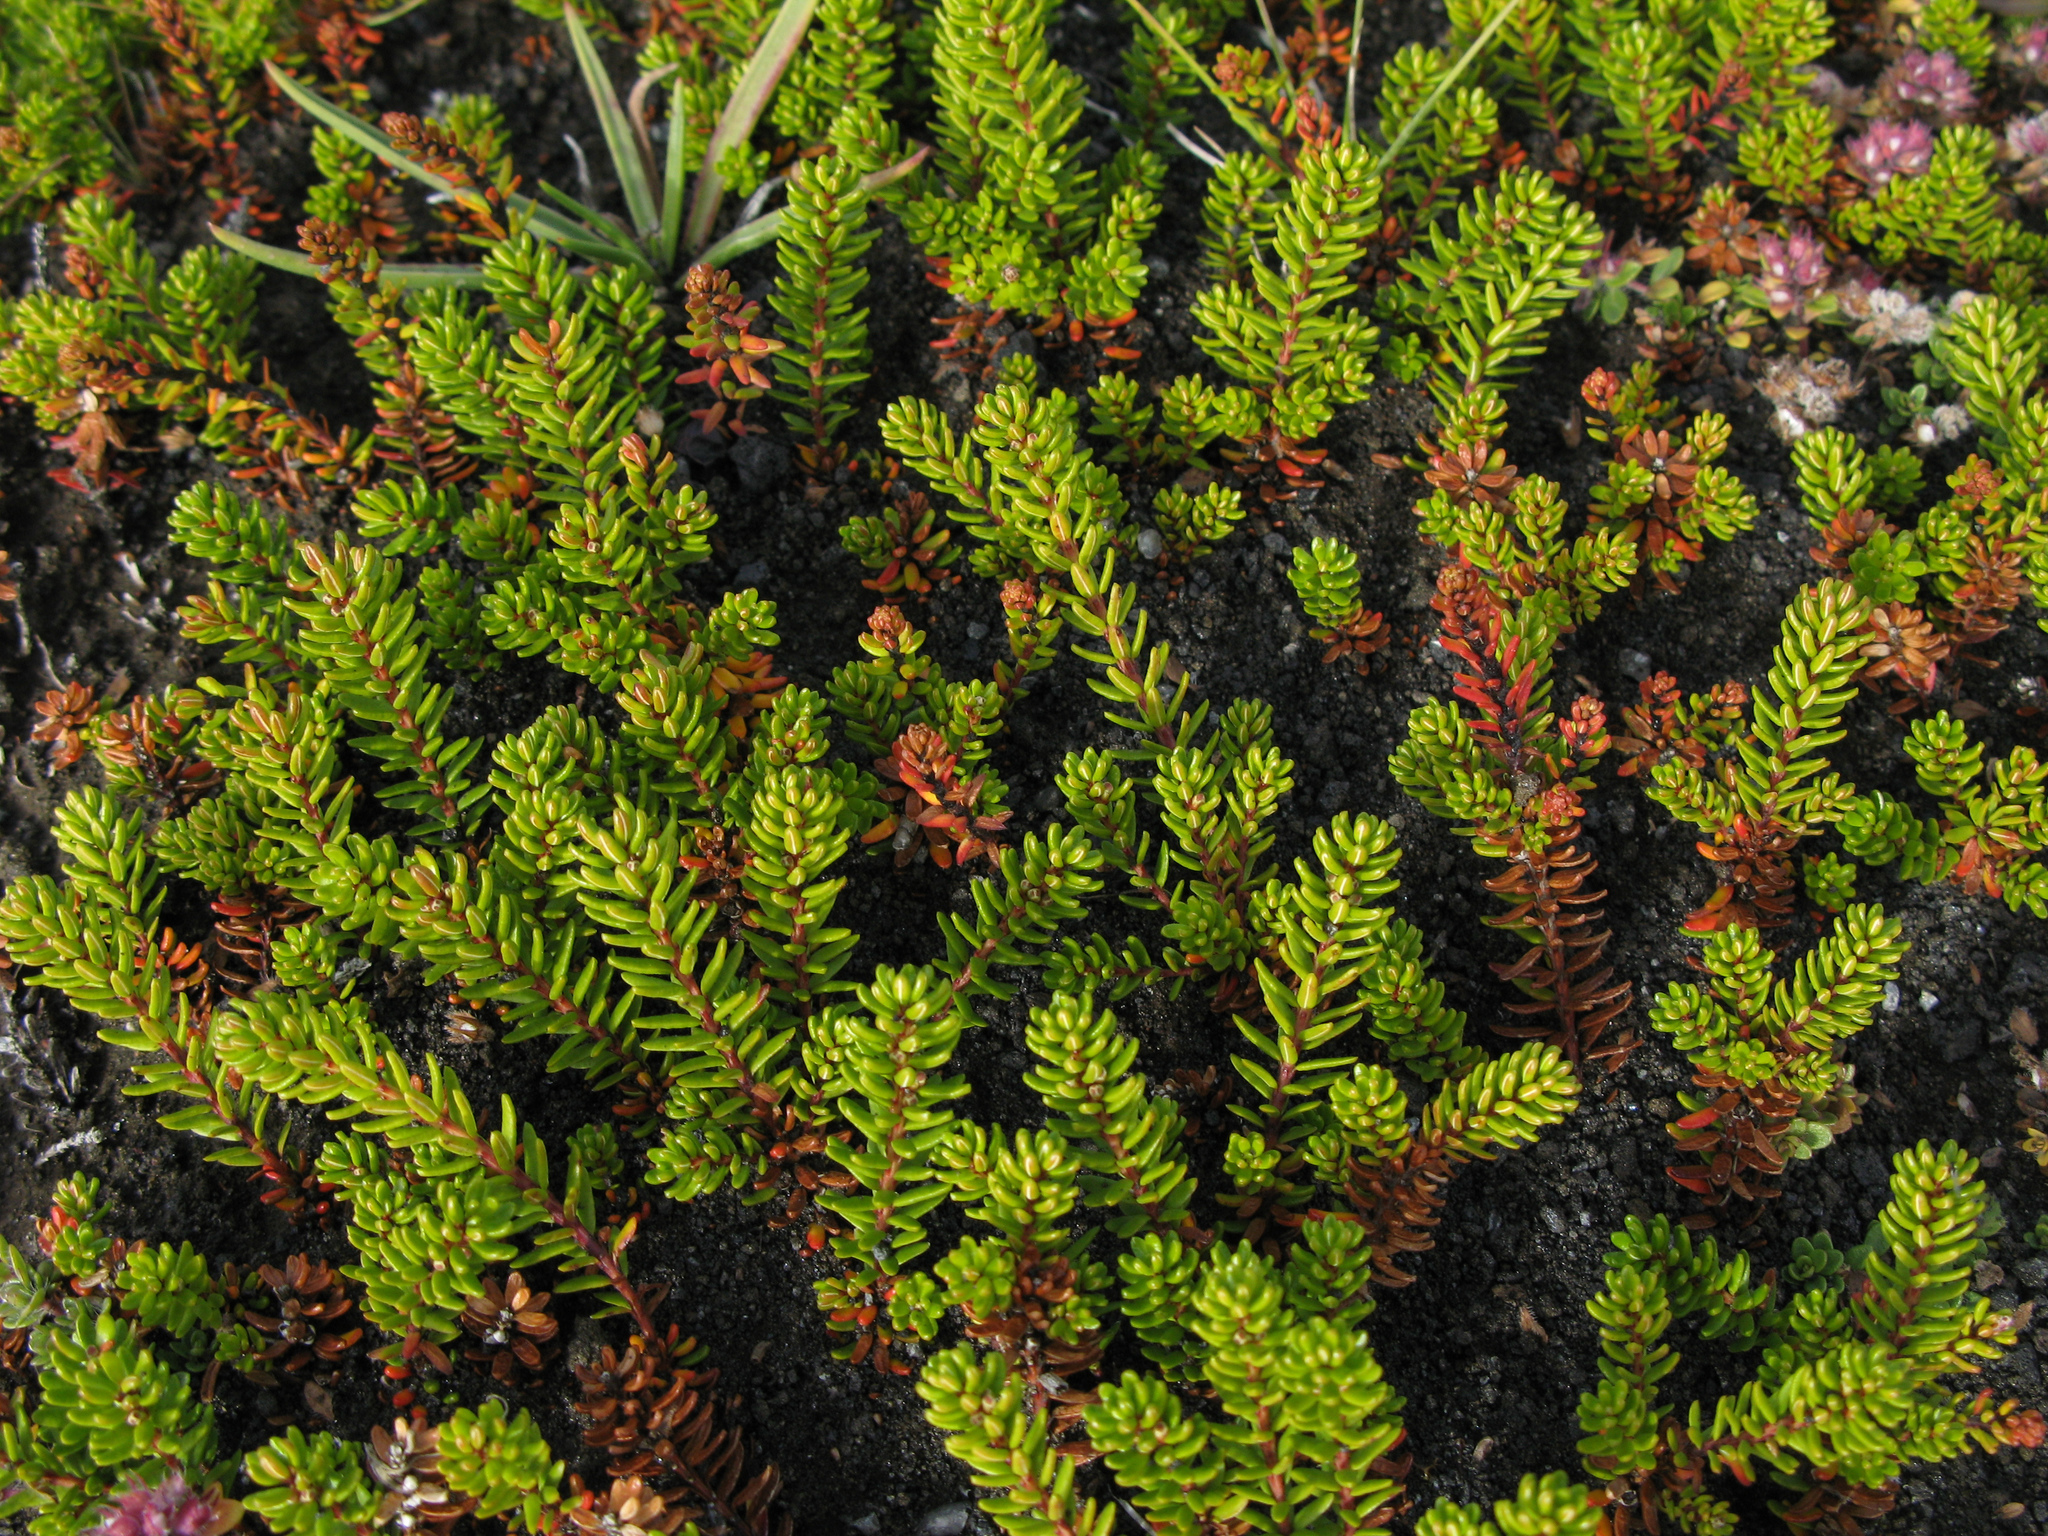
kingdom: Plantae
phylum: Tracheophyta
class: Magnoliopsida
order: Ericales
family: Ericaceae
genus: Empetrum
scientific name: Empetrum nigrum
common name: Black crowberry
